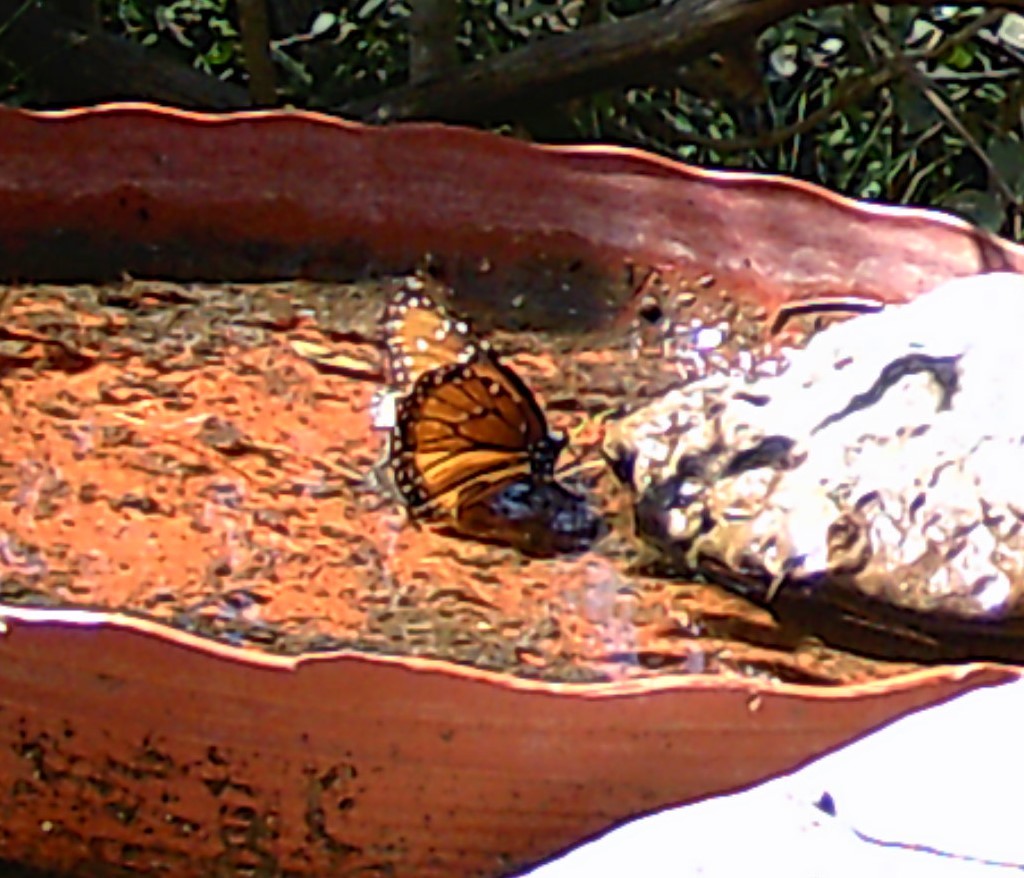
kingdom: Animalia
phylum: Arthropoda
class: Insecta
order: Lepidoptera
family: Nymphalidae
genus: Danaus
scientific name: Danaus gilippus
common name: Queen
